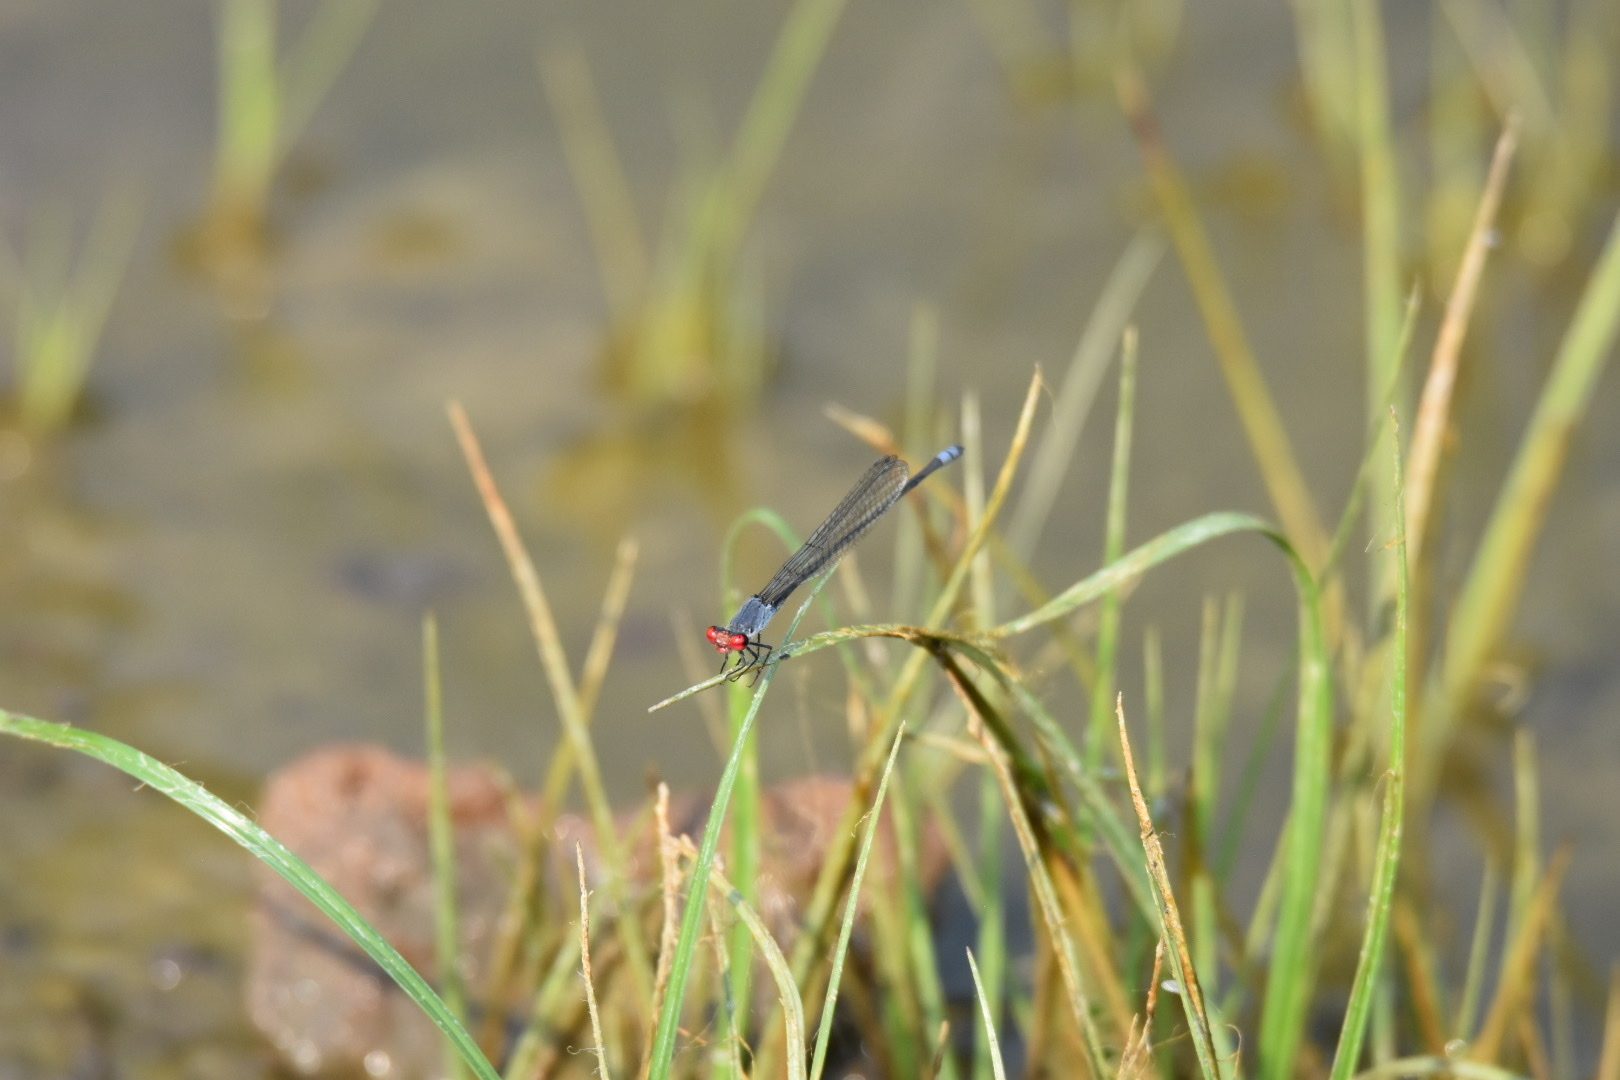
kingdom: Animalia
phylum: Arthropoda
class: Insecta
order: Odonata
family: Coenagrionidae
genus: Pseudagrion
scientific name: Pseudagrion sublacteum
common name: Cherry-eye sprite
